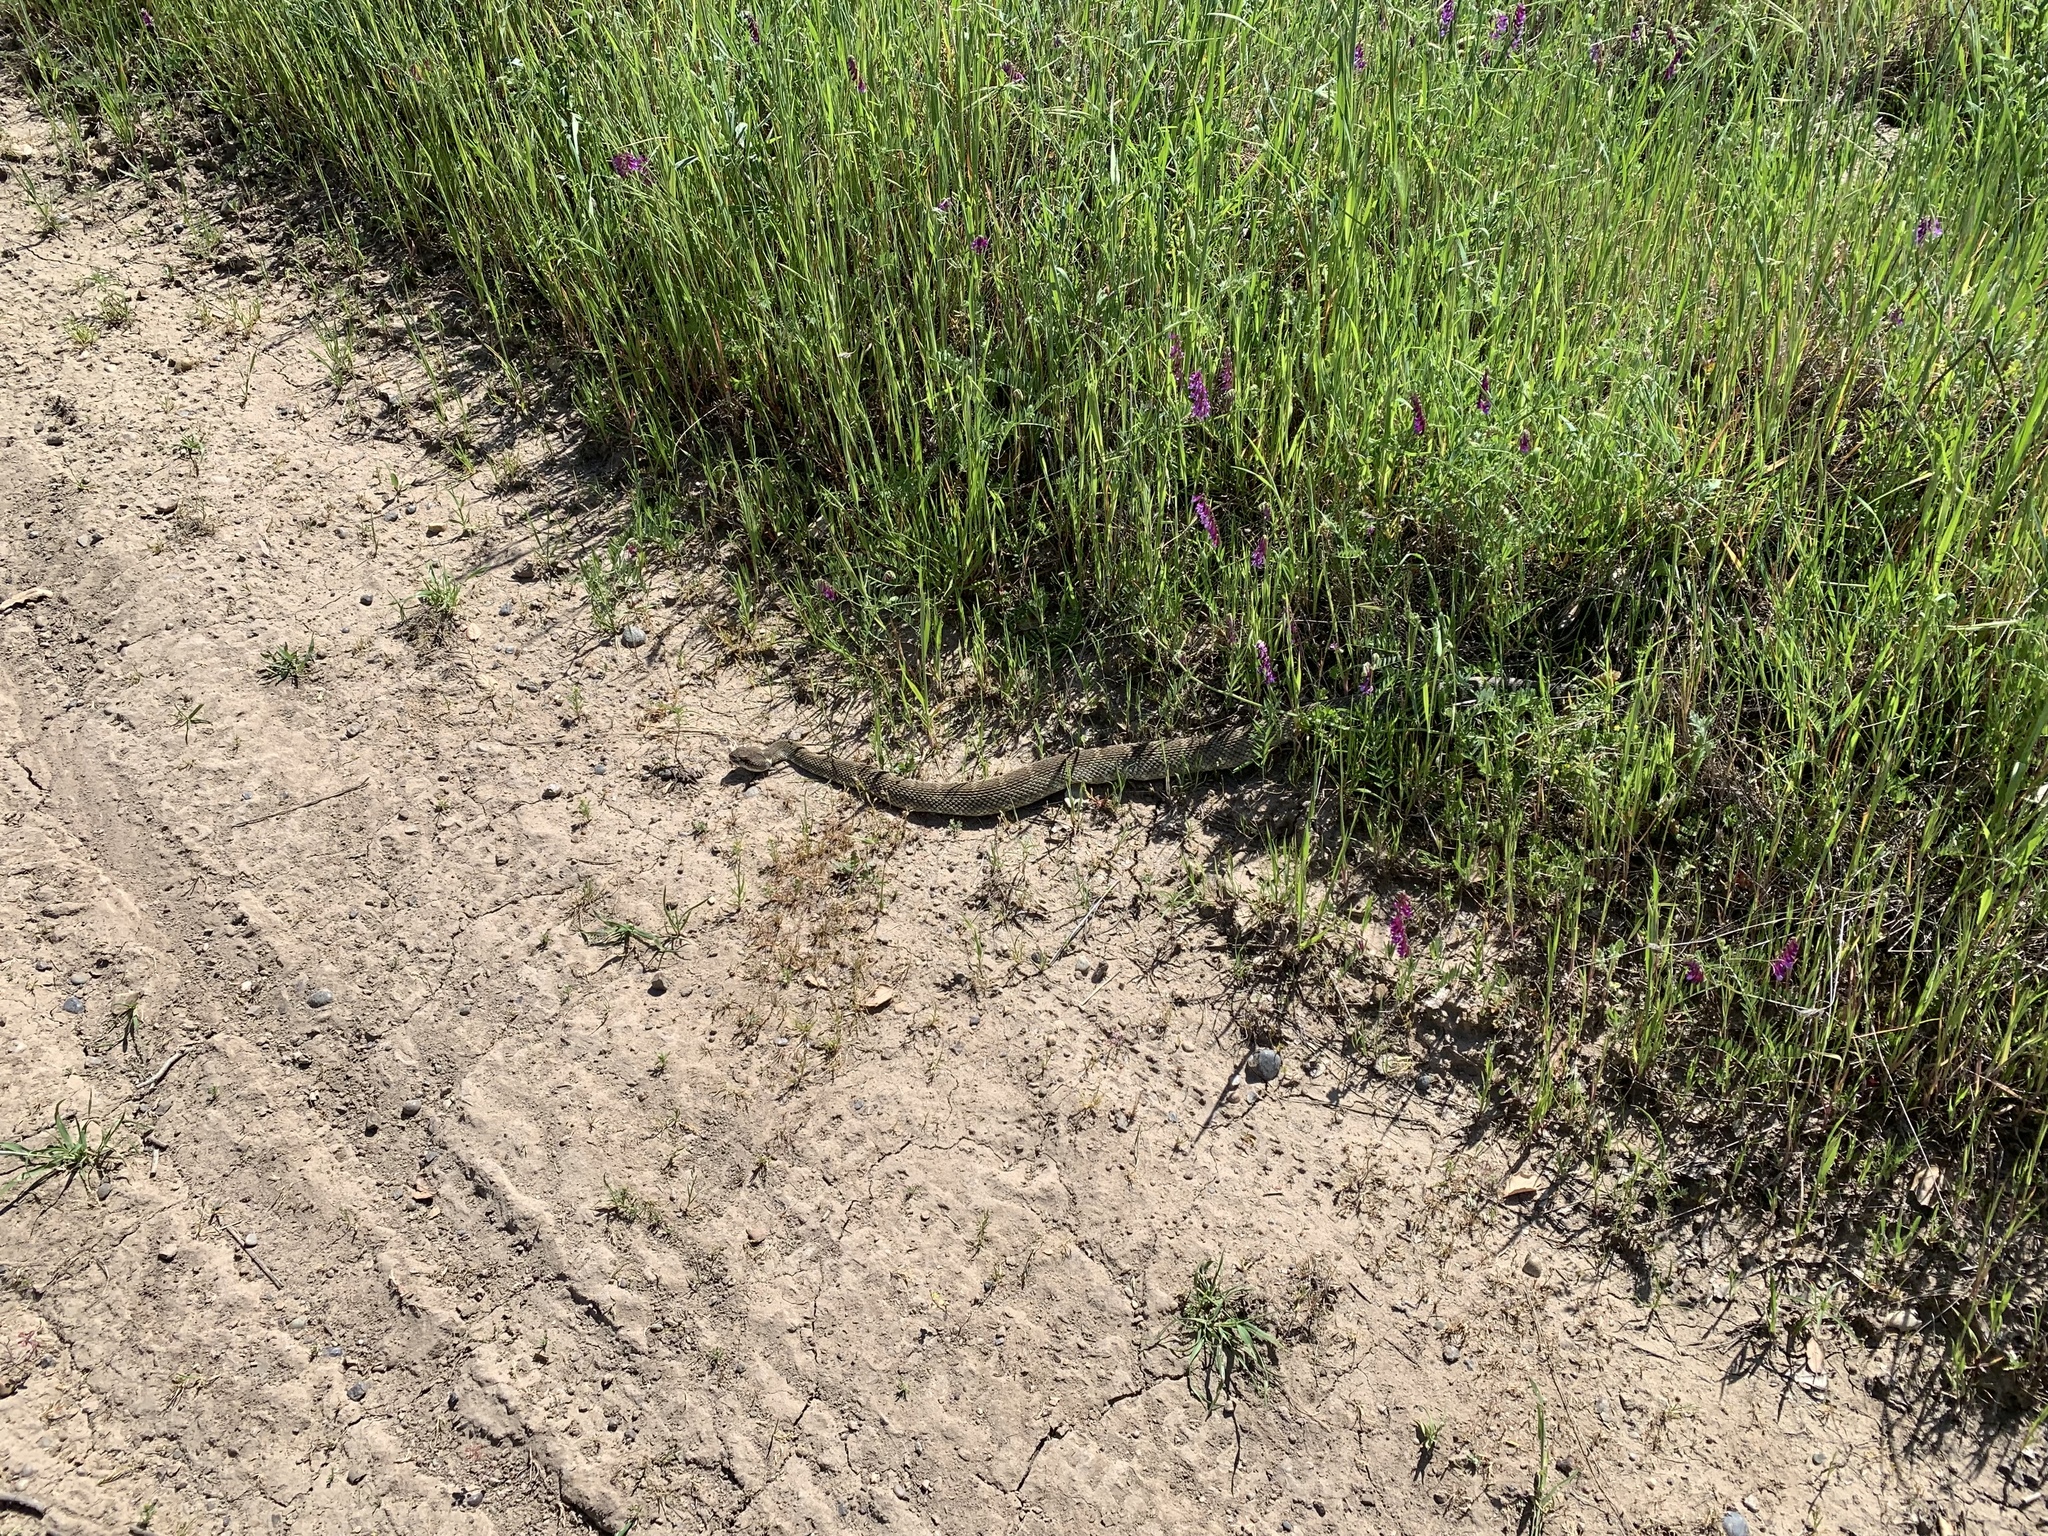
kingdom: Animalia
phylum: Chordata
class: Squamata
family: Viperidae
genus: Crotalus
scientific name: Crotalus oreganus
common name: Abyssus
